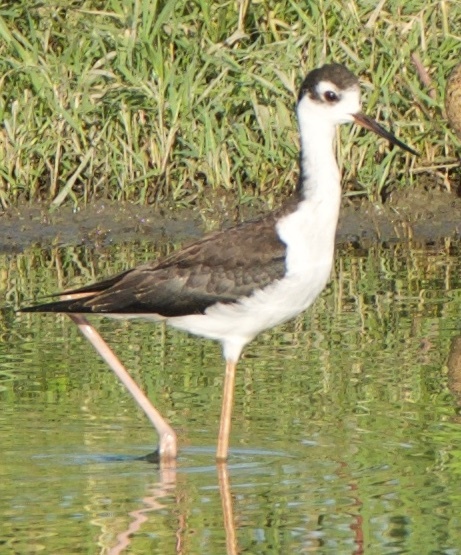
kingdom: Animalia
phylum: Chordata
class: Aves
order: Charadriiformes
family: Recurvirostridae
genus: Himantopus
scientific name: Himantopus mexicanus
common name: Black-necked stilt
